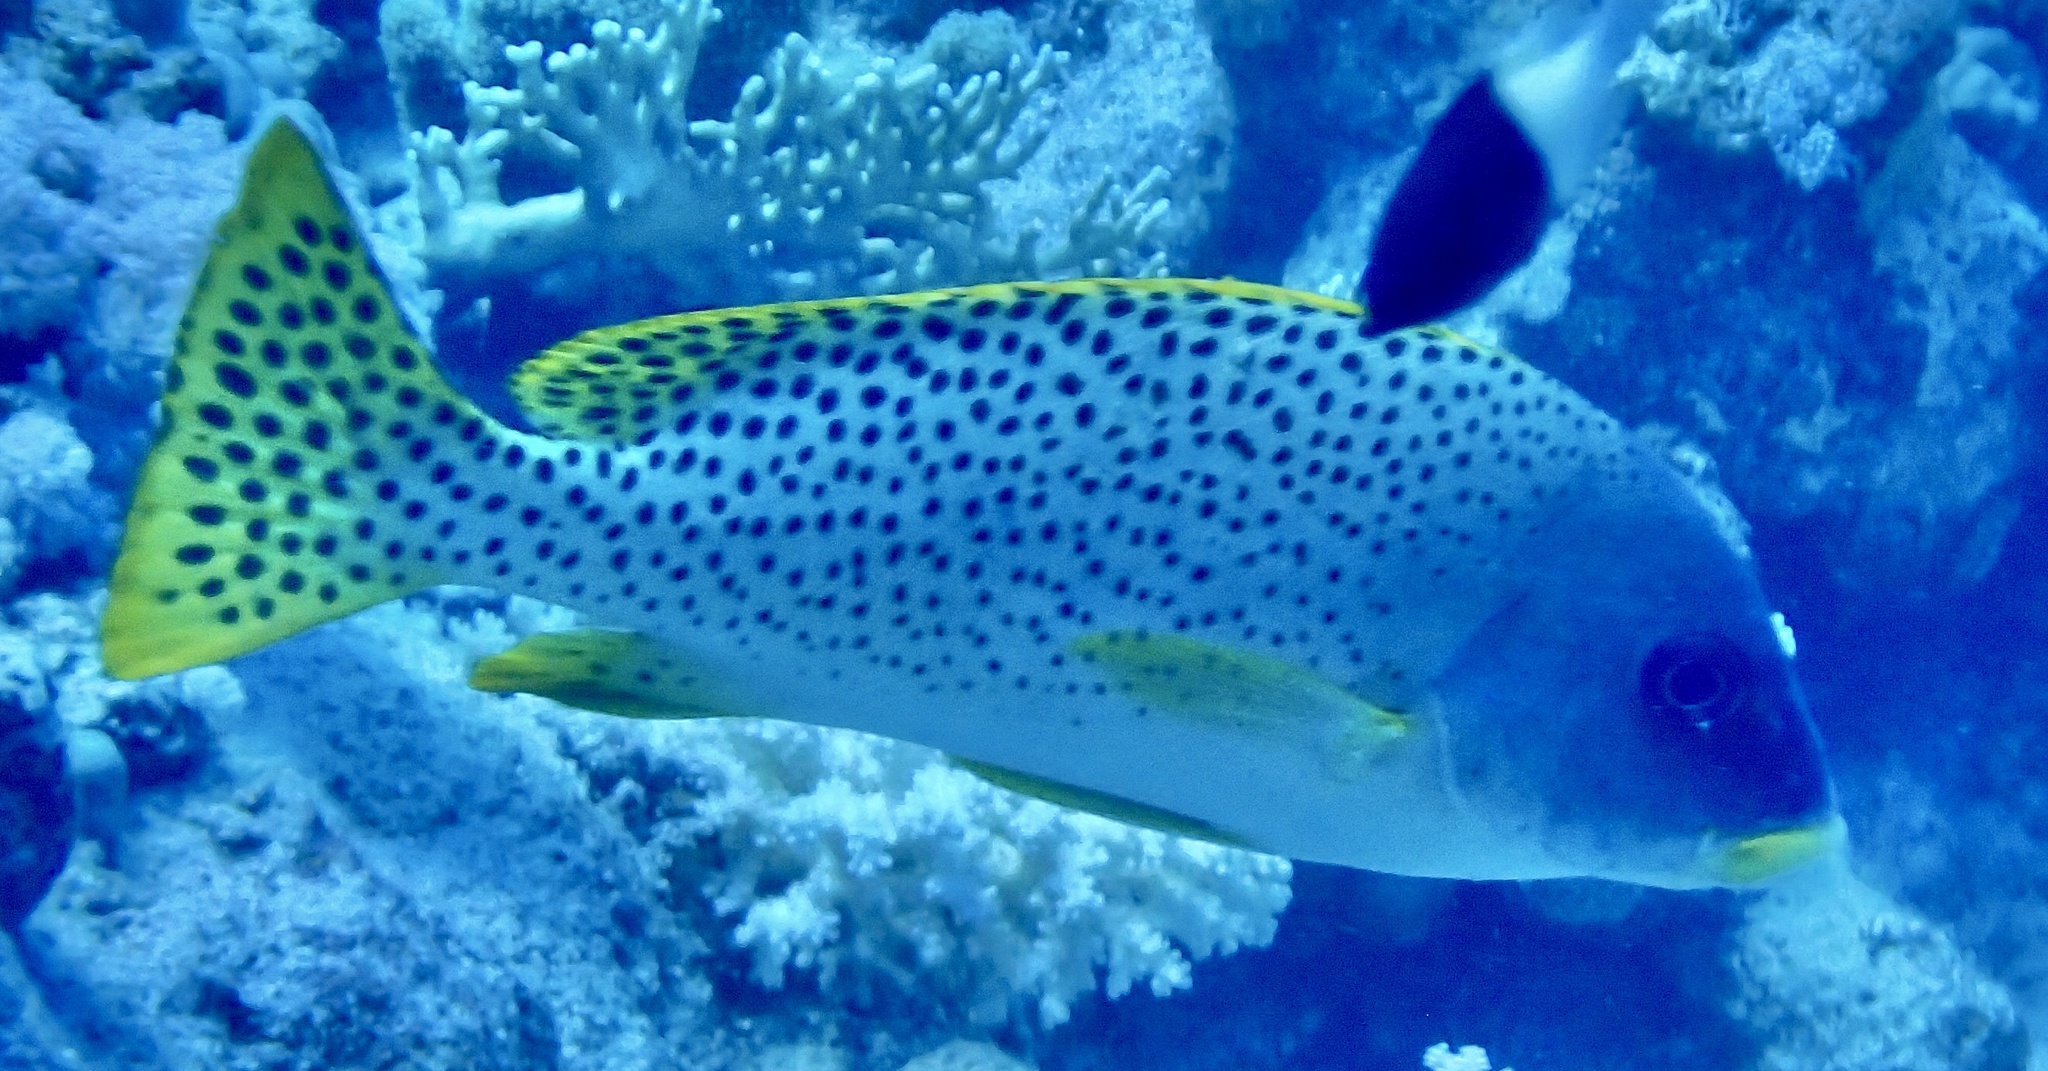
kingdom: Animalia
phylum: Chordata
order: Perciformes
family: Haemulidae
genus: Plectorhinchus
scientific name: Plectorhinchus gaterinus
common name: Blackspotted rubberlip
